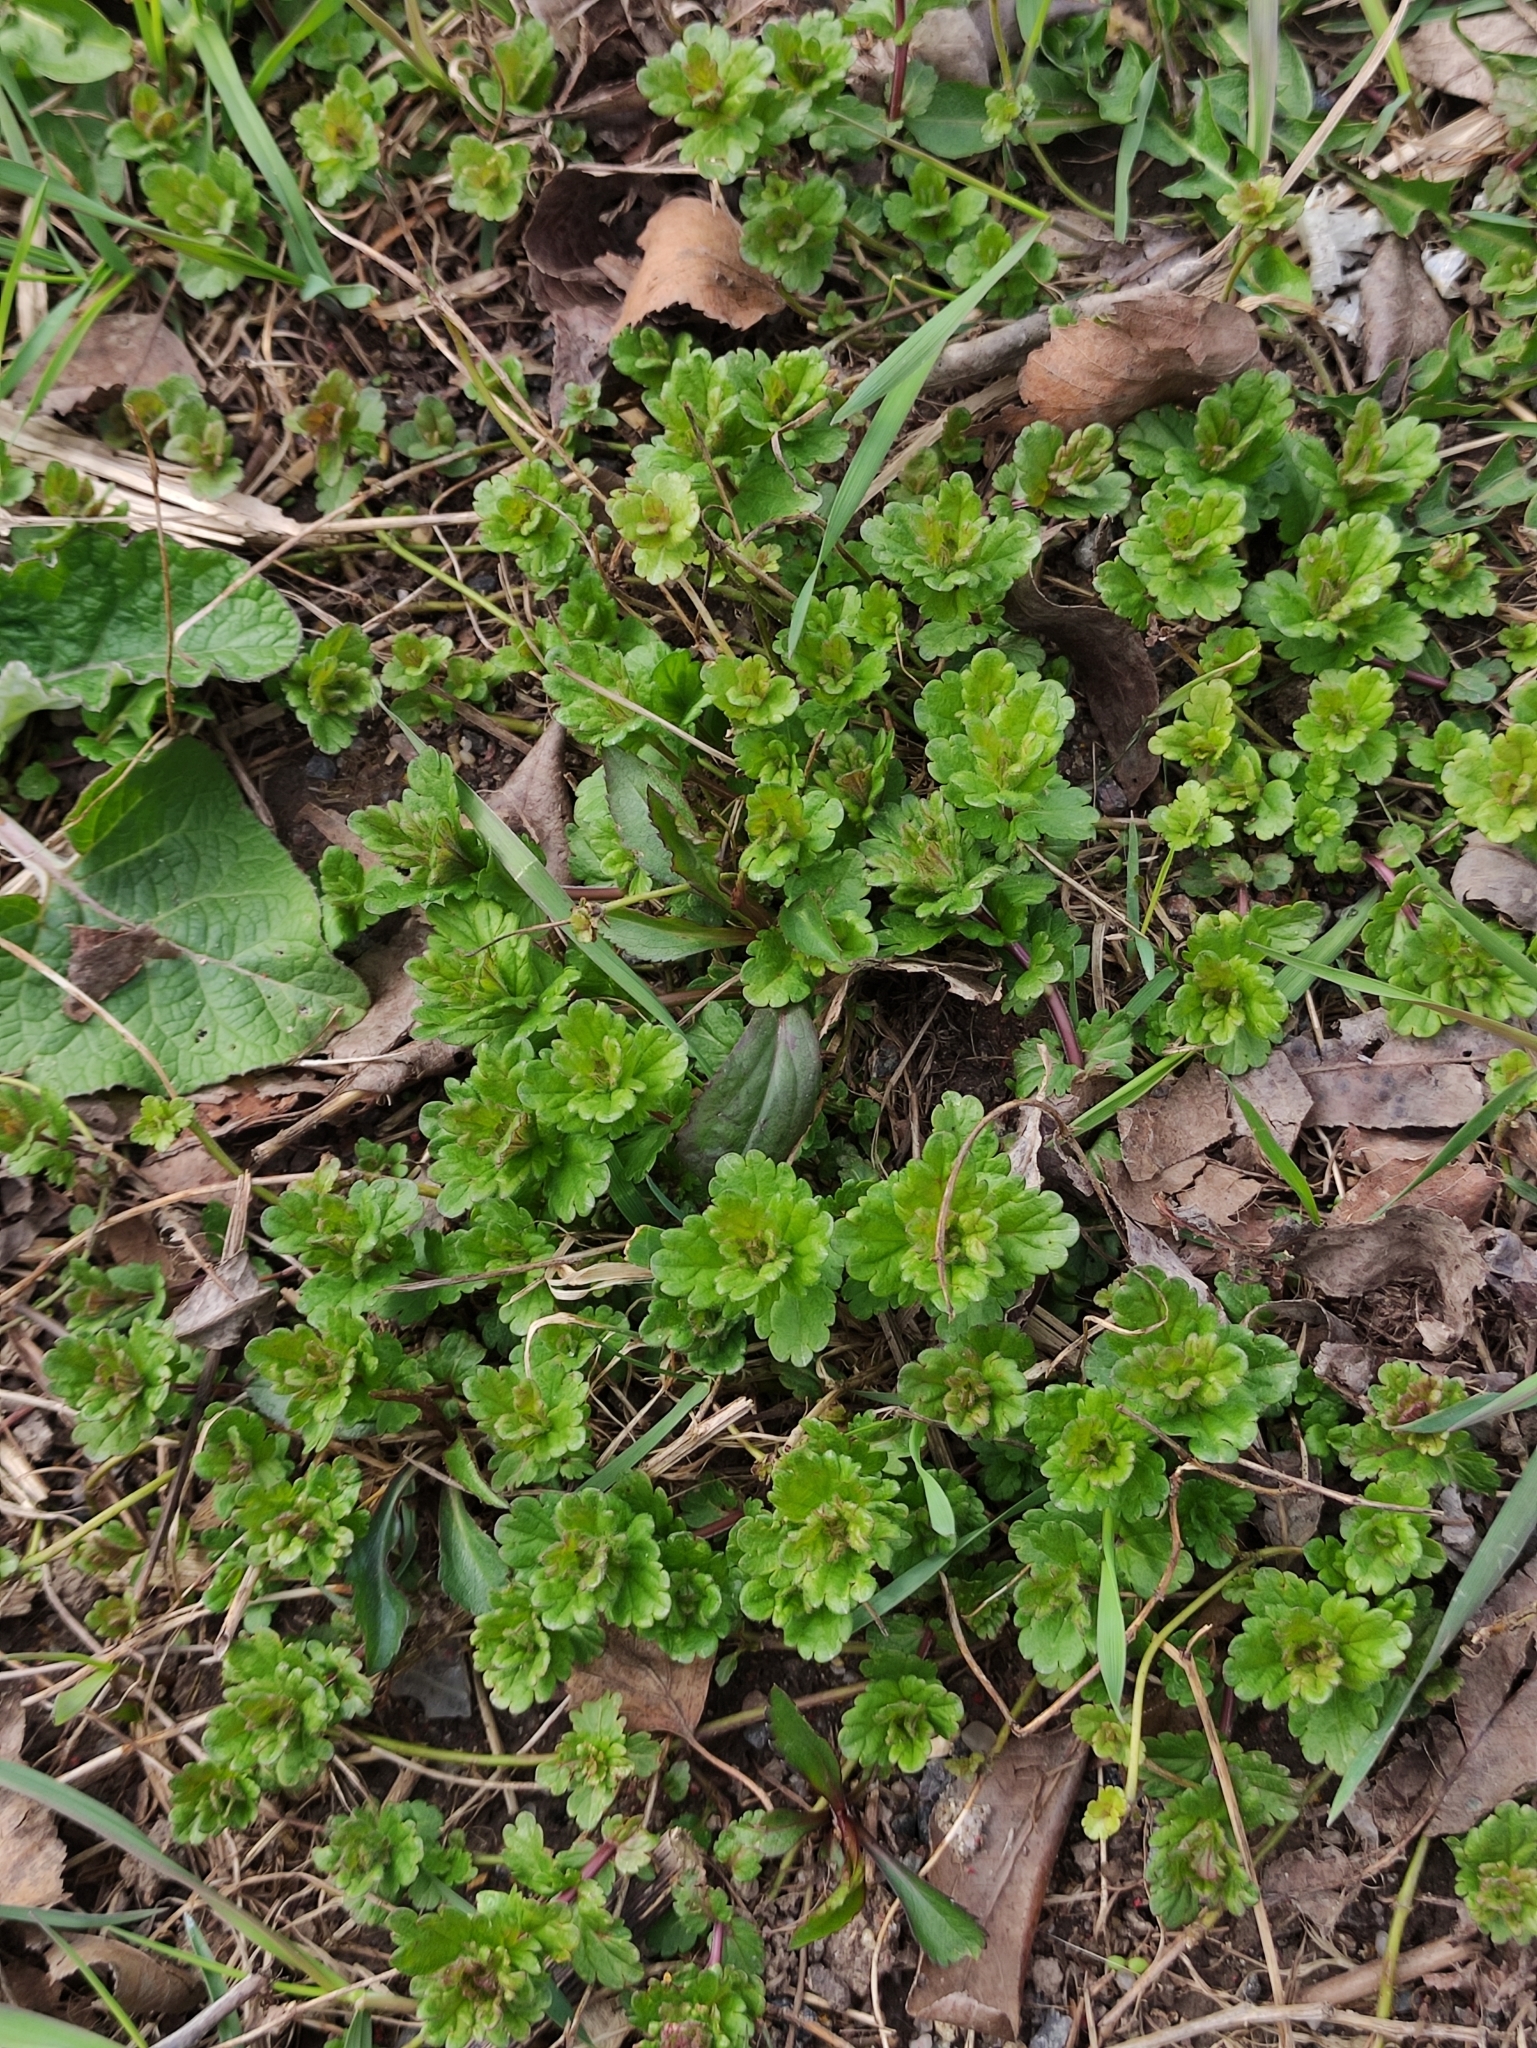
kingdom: Plantae
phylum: Tracheophyta
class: Magnoliopsida
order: Lamiales
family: Plantaginaceae
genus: Veronica
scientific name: Veronica chamaedrys
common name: Germander speedwell
